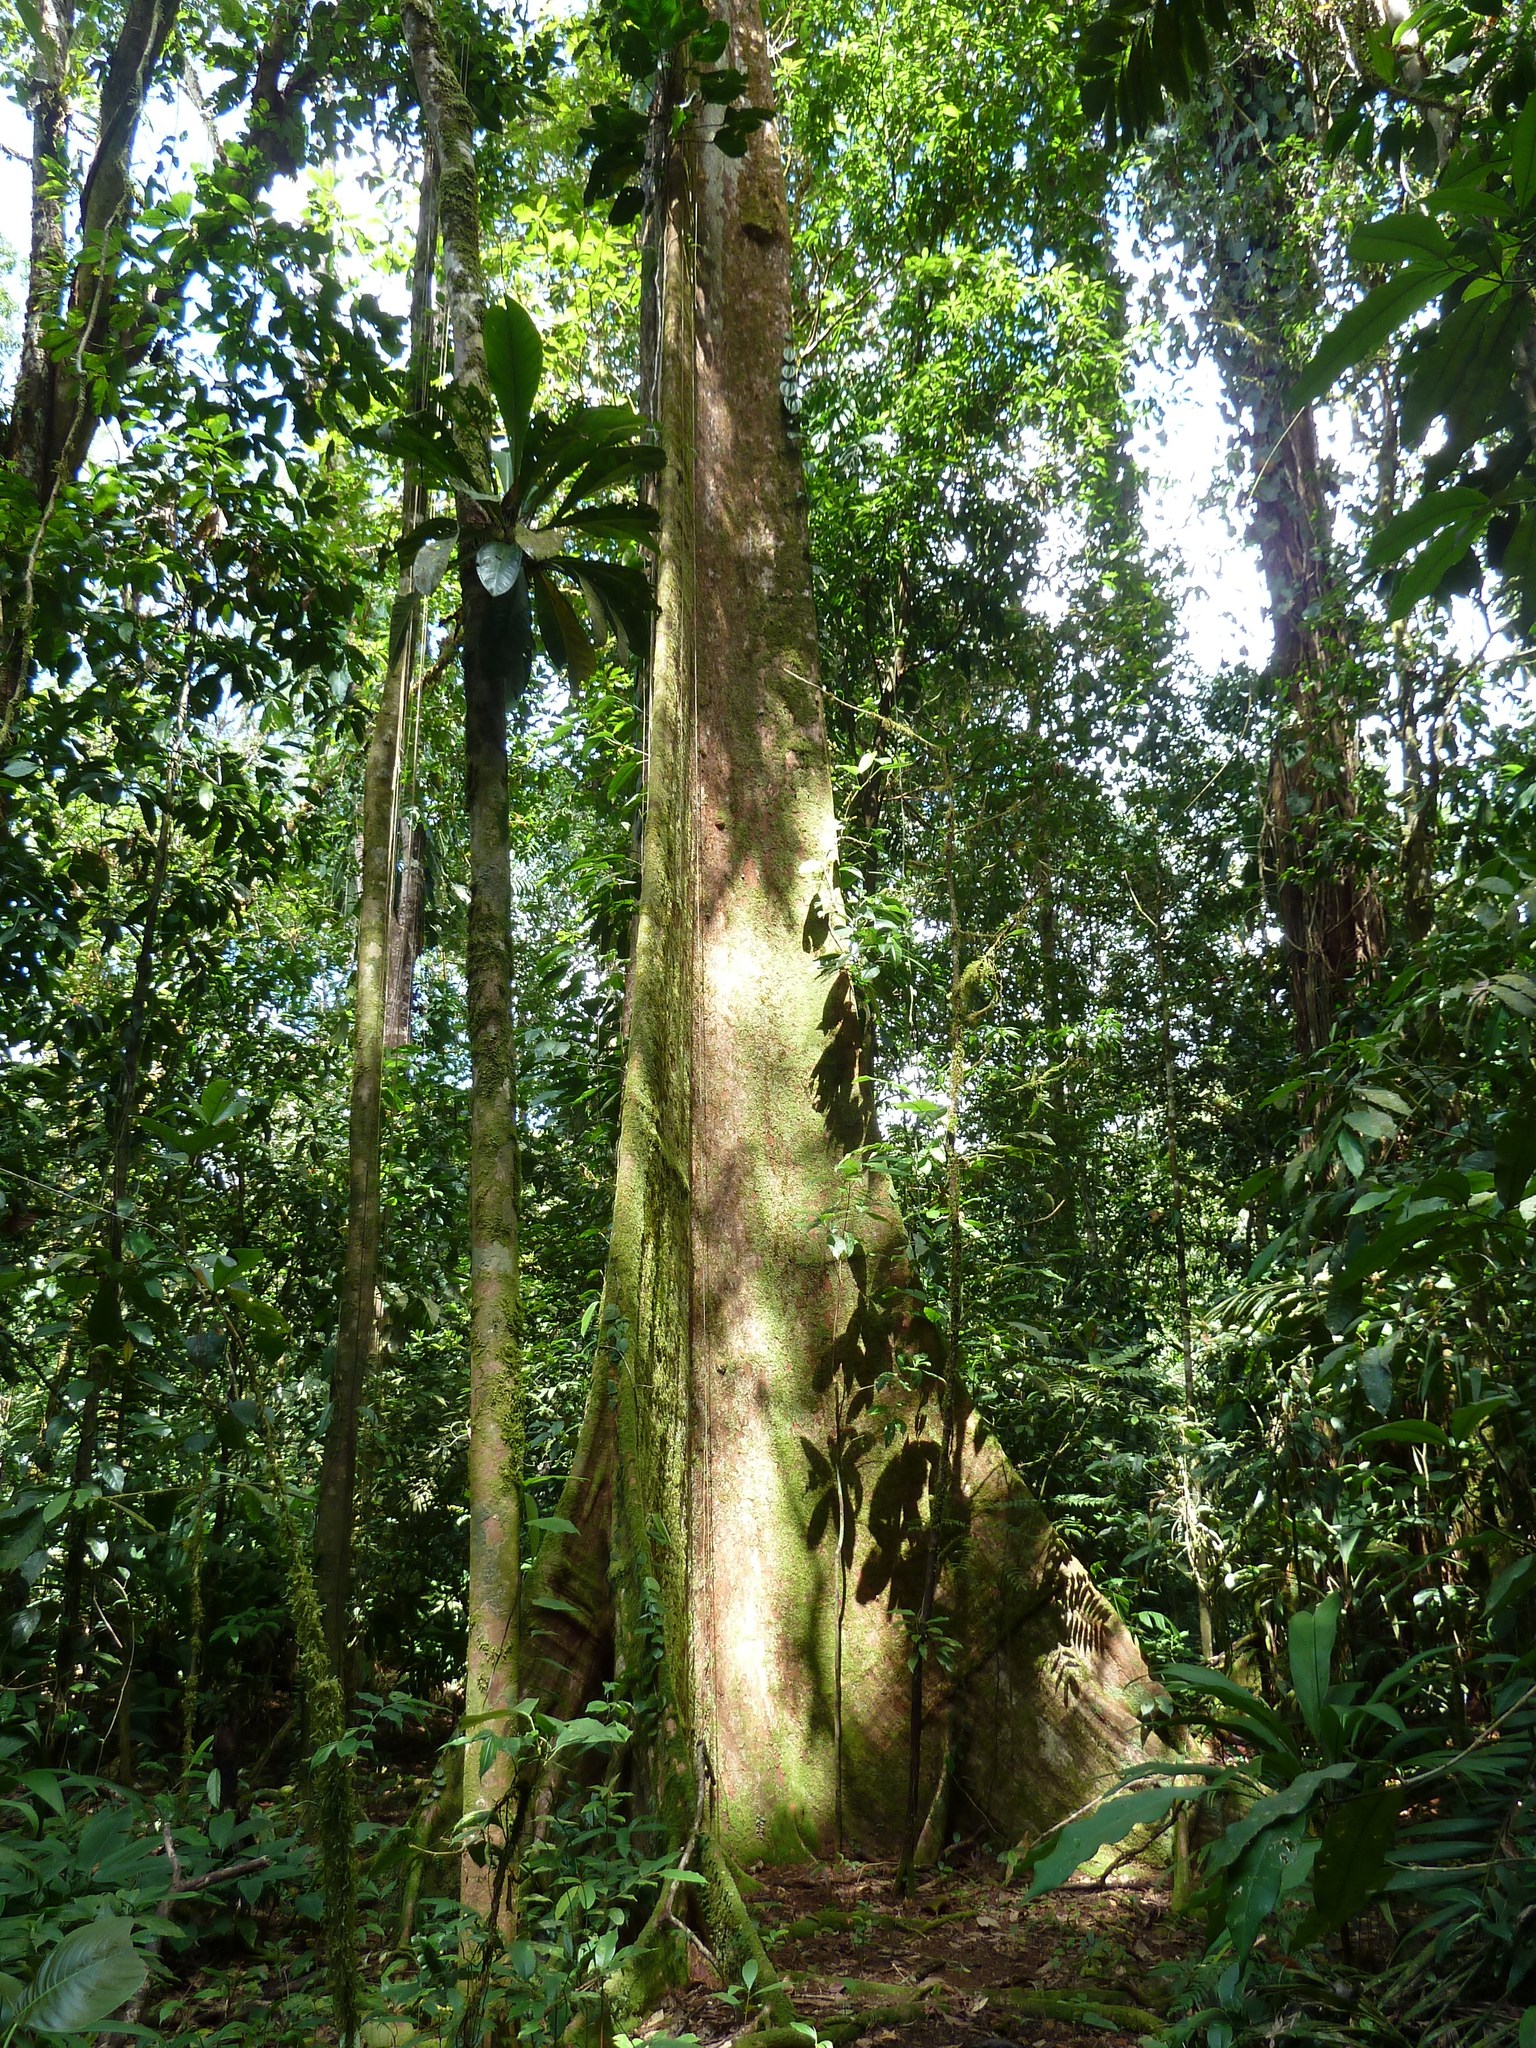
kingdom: Plantae
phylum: Tracheophyta
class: Magnoliopsida
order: Malvales
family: Malvaceae
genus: Huberodendron
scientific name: Huberodendron allenii
